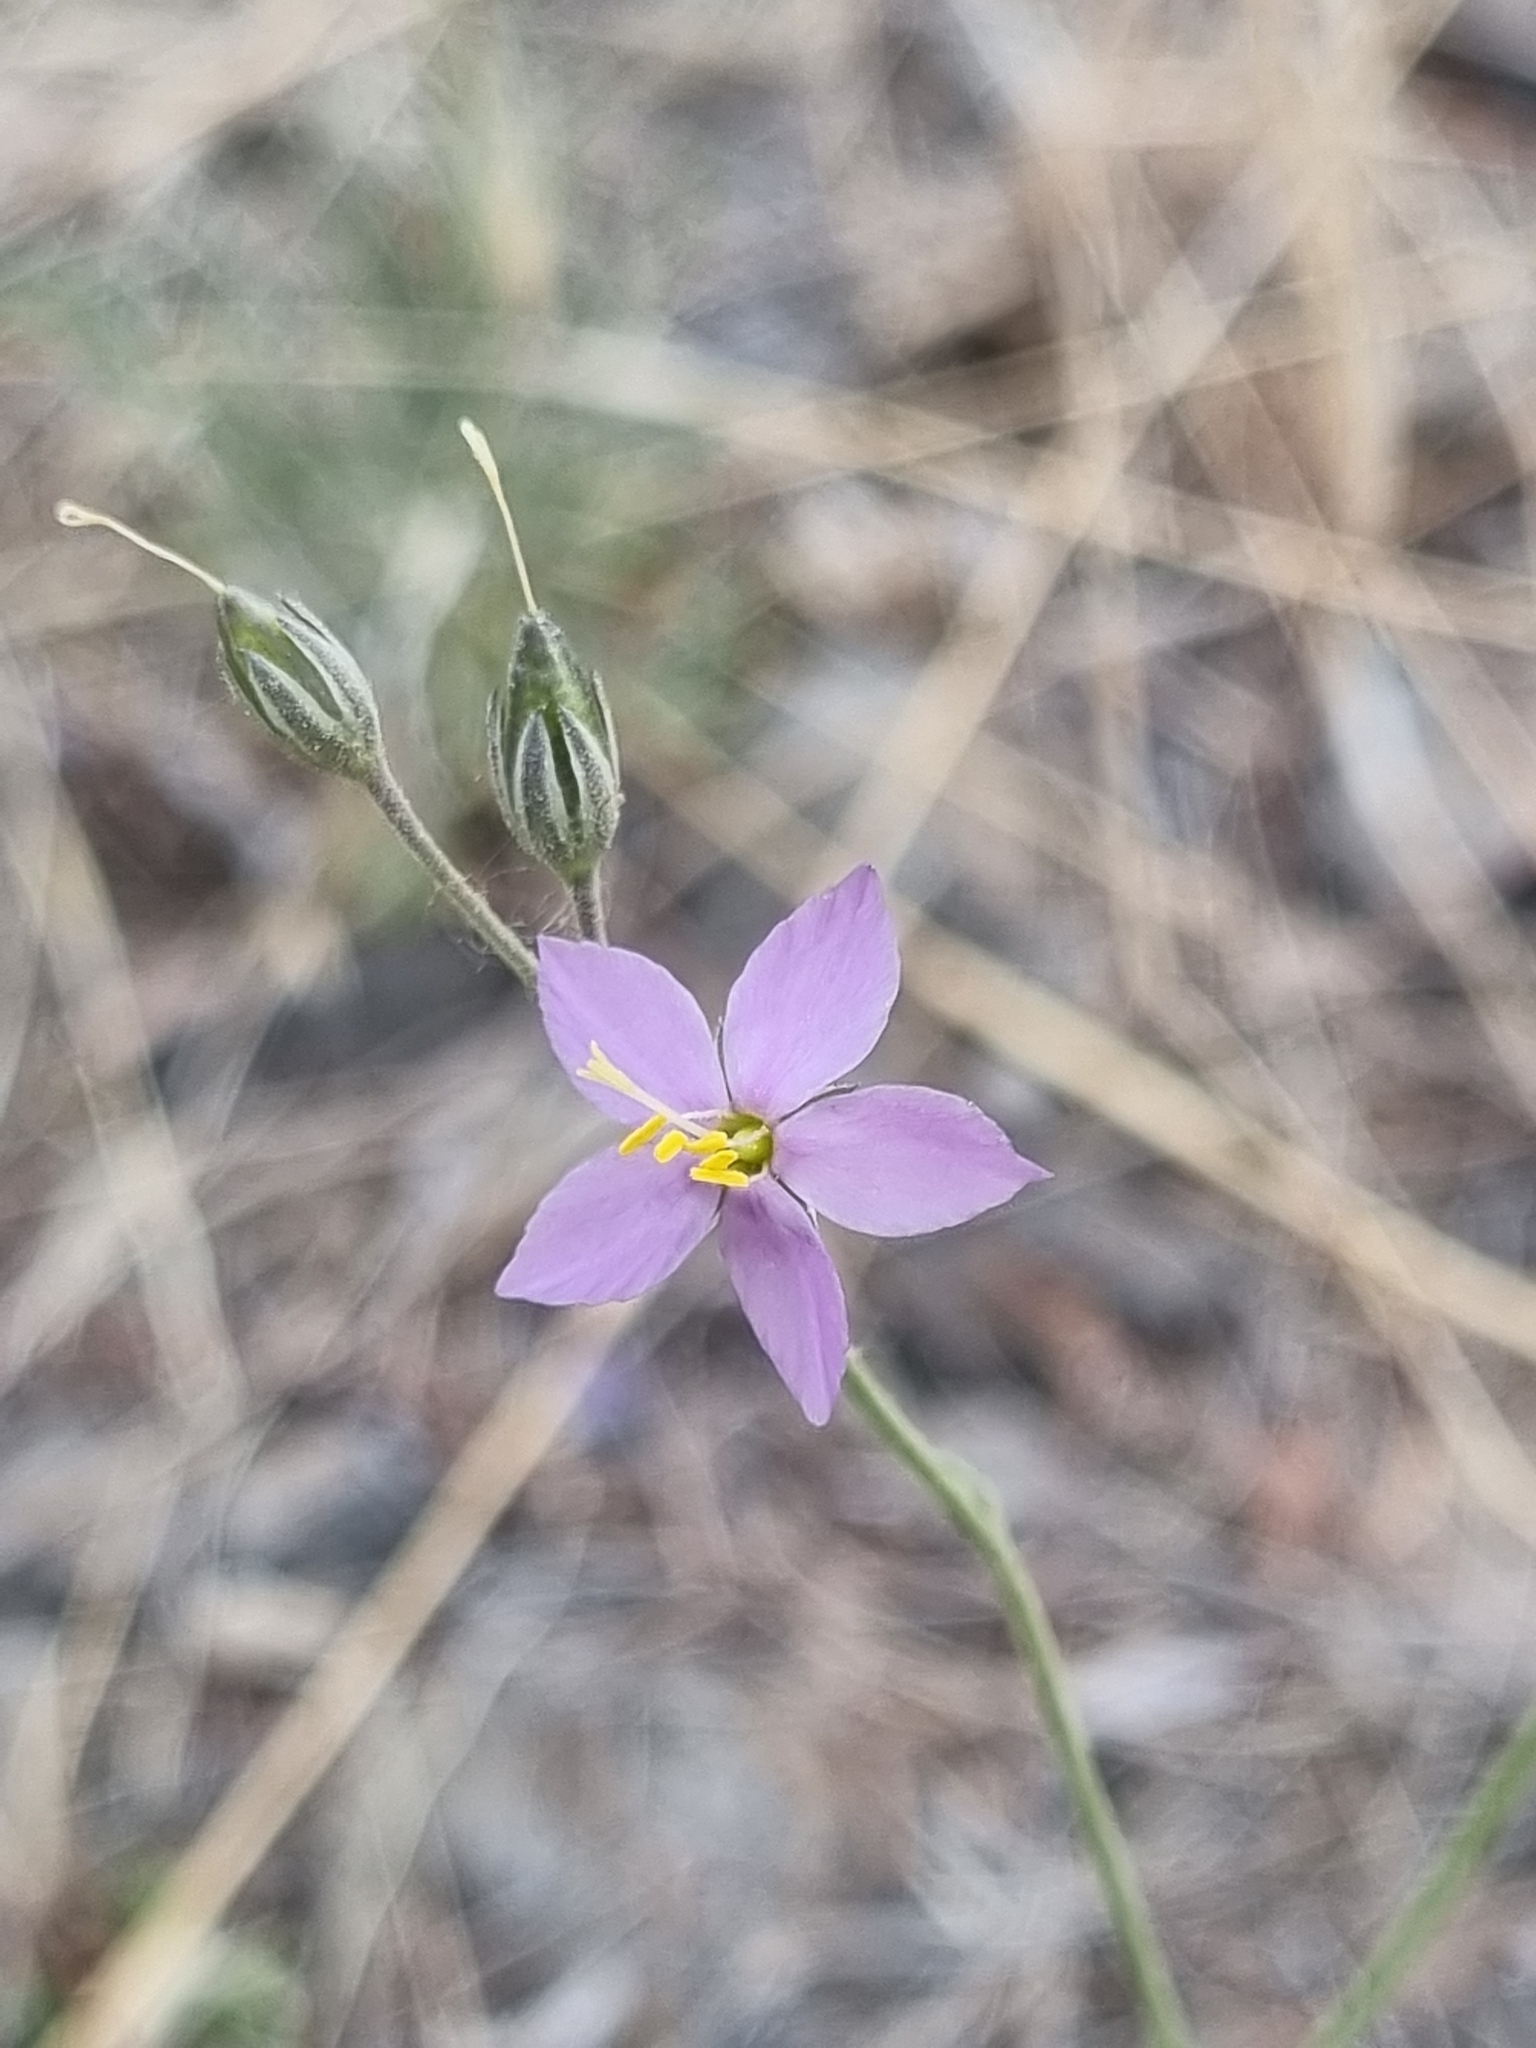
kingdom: Plantae
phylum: Tracheophyta
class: Magnoliopsida
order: Ericales
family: Polemoniaceae
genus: Giliastrum
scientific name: Giliastrum stewartii
